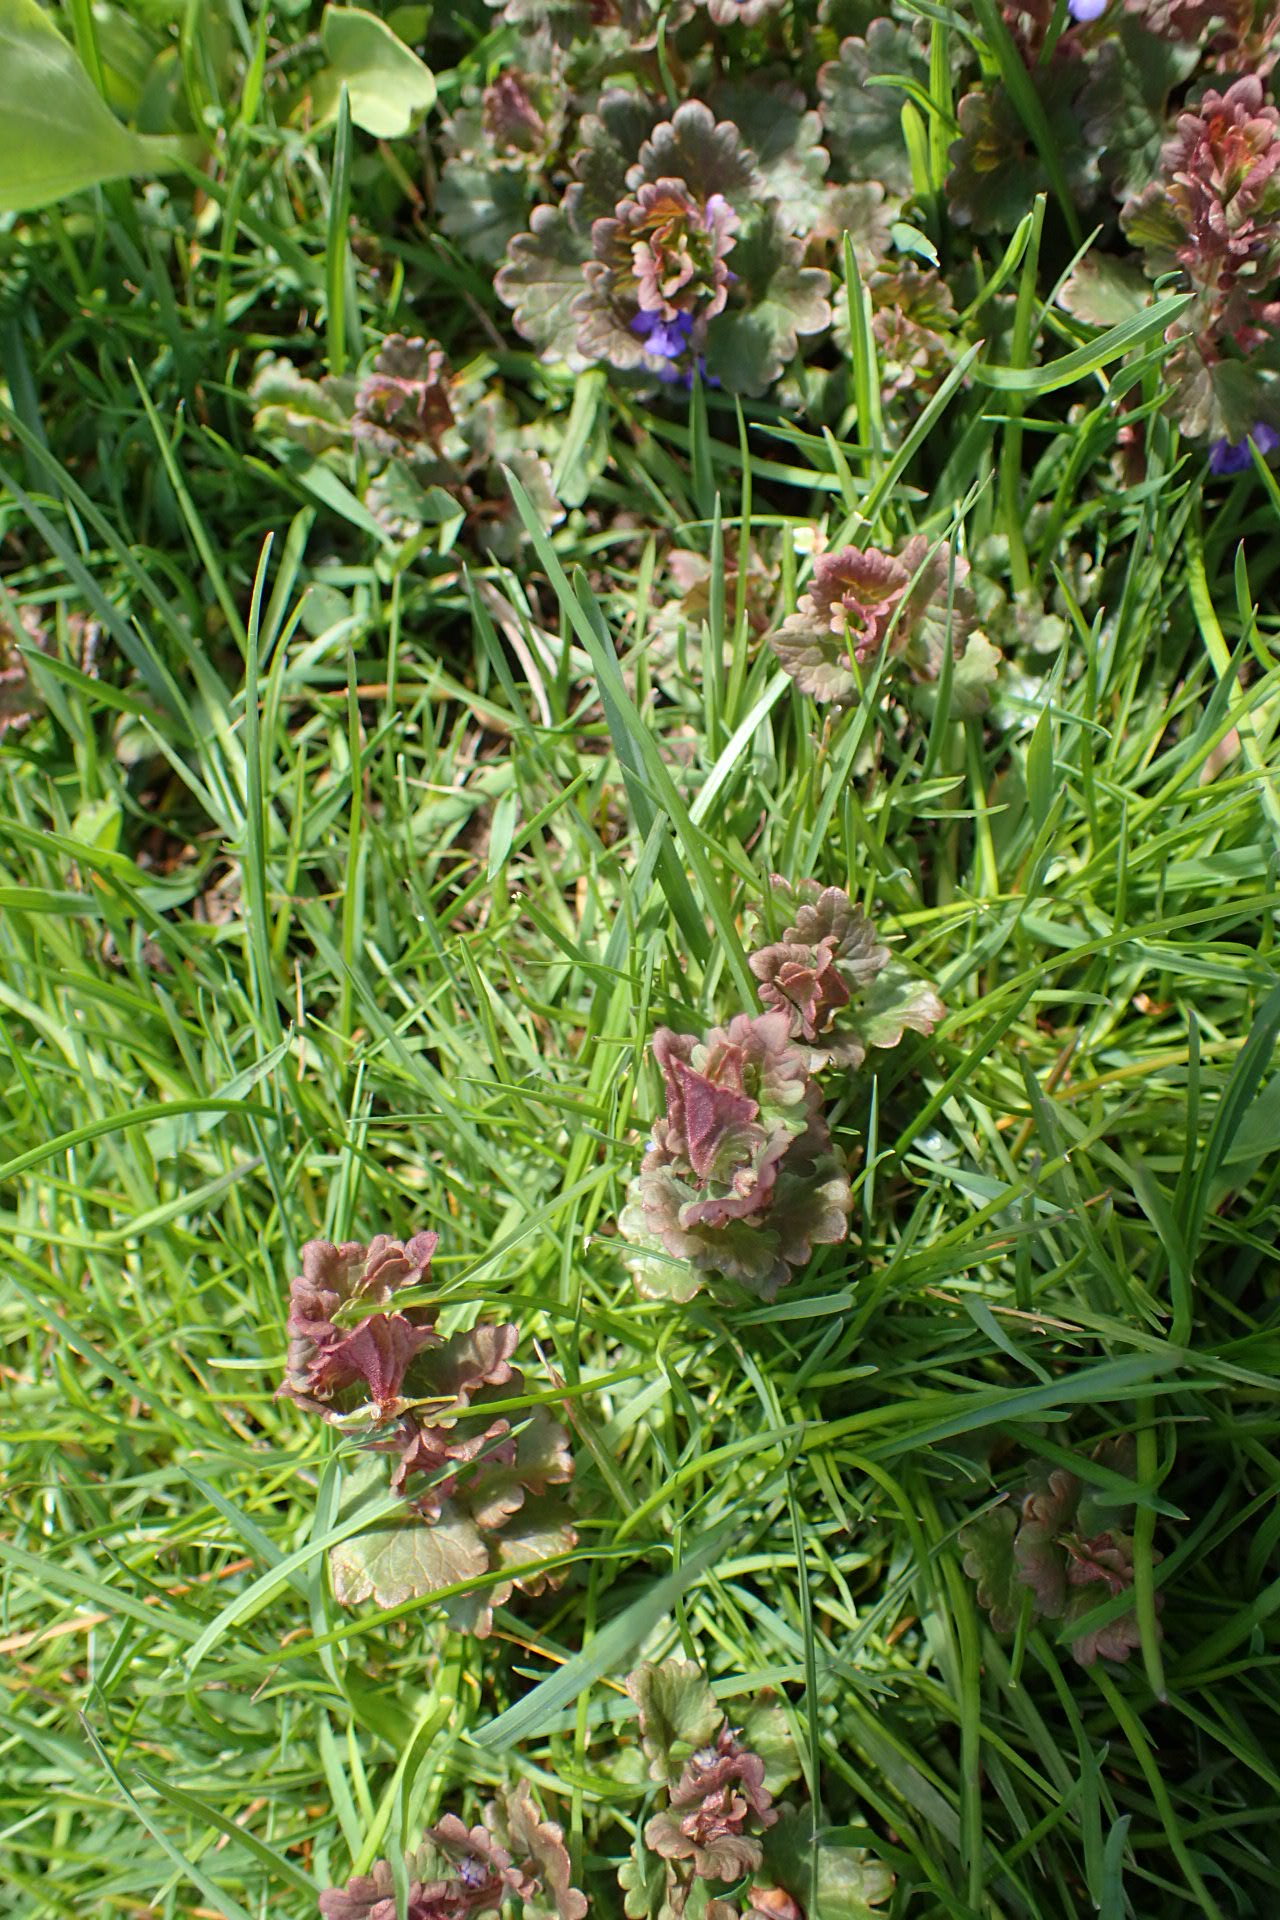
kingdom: Plantae
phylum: Tracheophyta
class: Magnoliopsida
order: Lamiales
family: Lamiaceae
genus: Glechoma
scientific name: Glechoma hederacea
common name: Ground ivy
